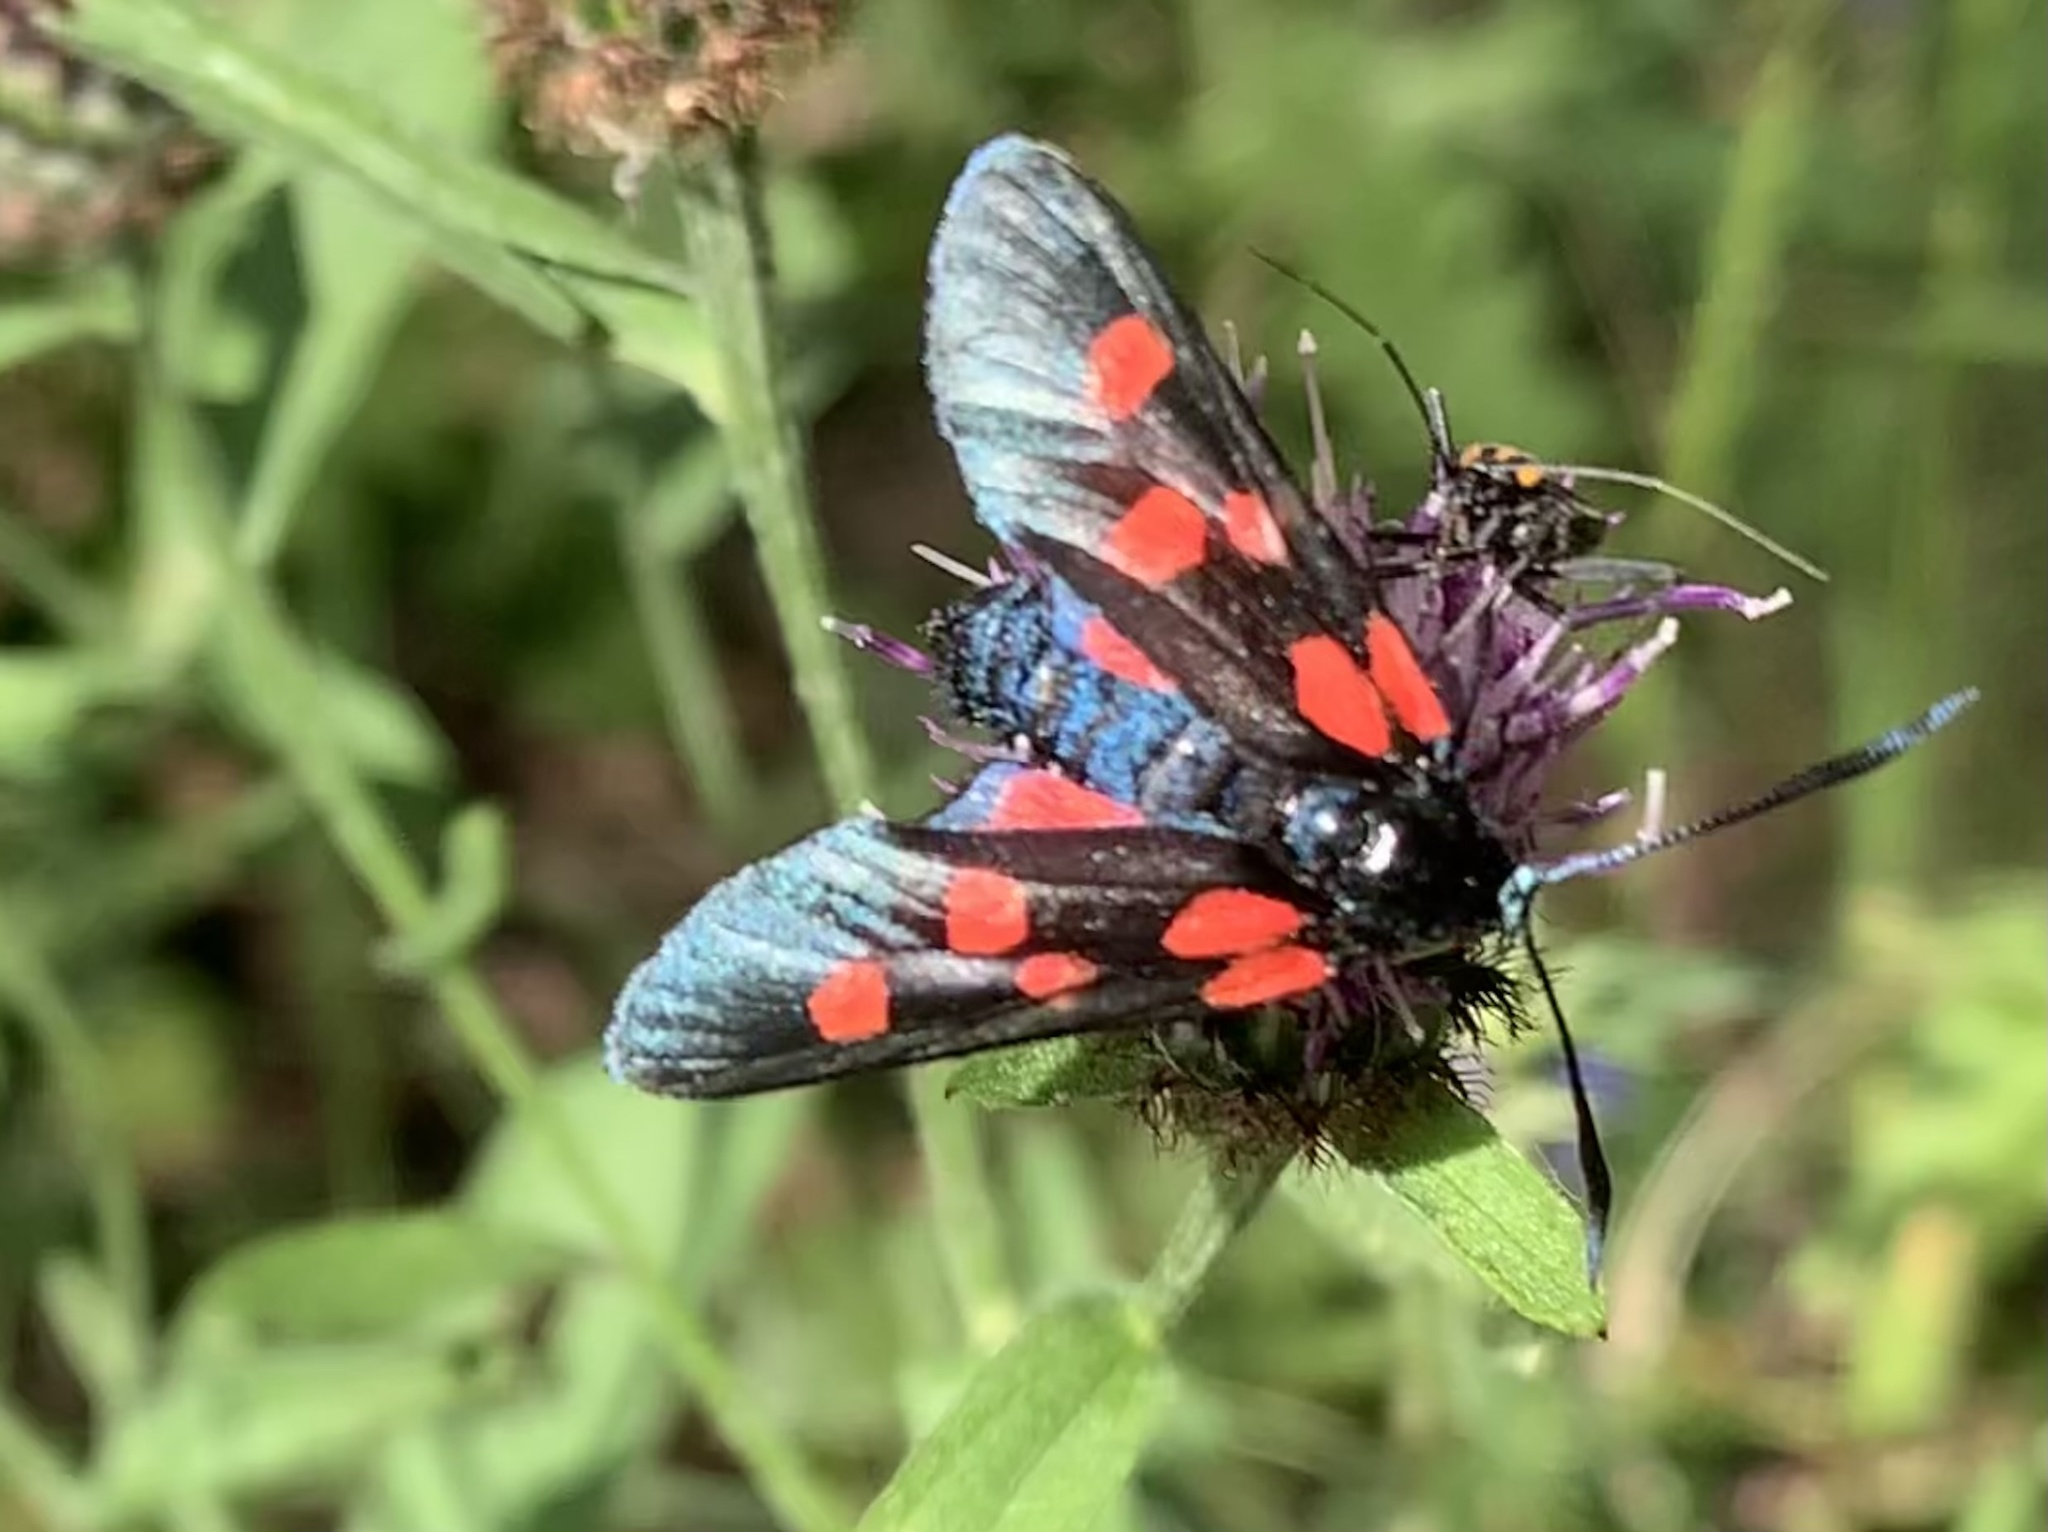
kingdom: Animalia
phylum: Arthropoda
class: Insecta
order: Lepidoptera
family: Zygaenidae
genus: Zygaena
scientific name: Zygaena lonicerae
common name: Narrow-bordered five-spot burnet
